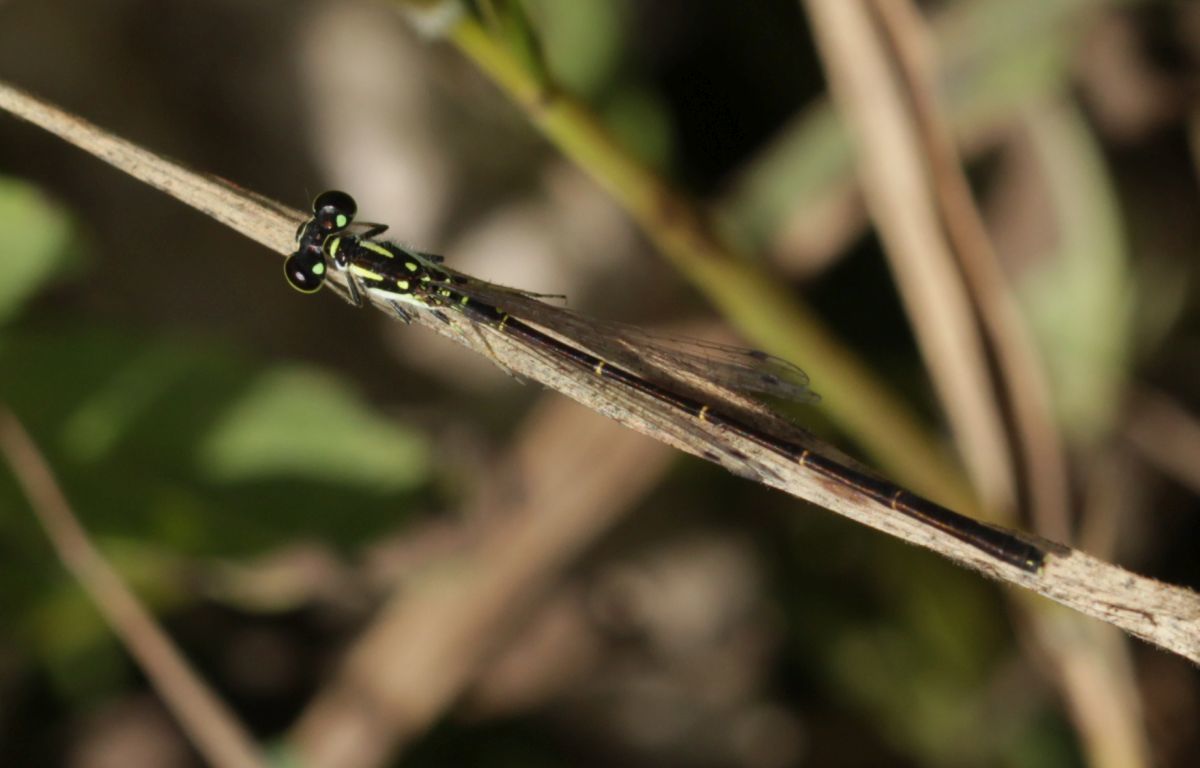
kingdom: Animalia
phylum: Arthropoda
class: Insecta
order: Odonata
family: Coenagrionidae
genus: Ischnura
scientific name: Ischnura posita
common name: Fragile forktail
